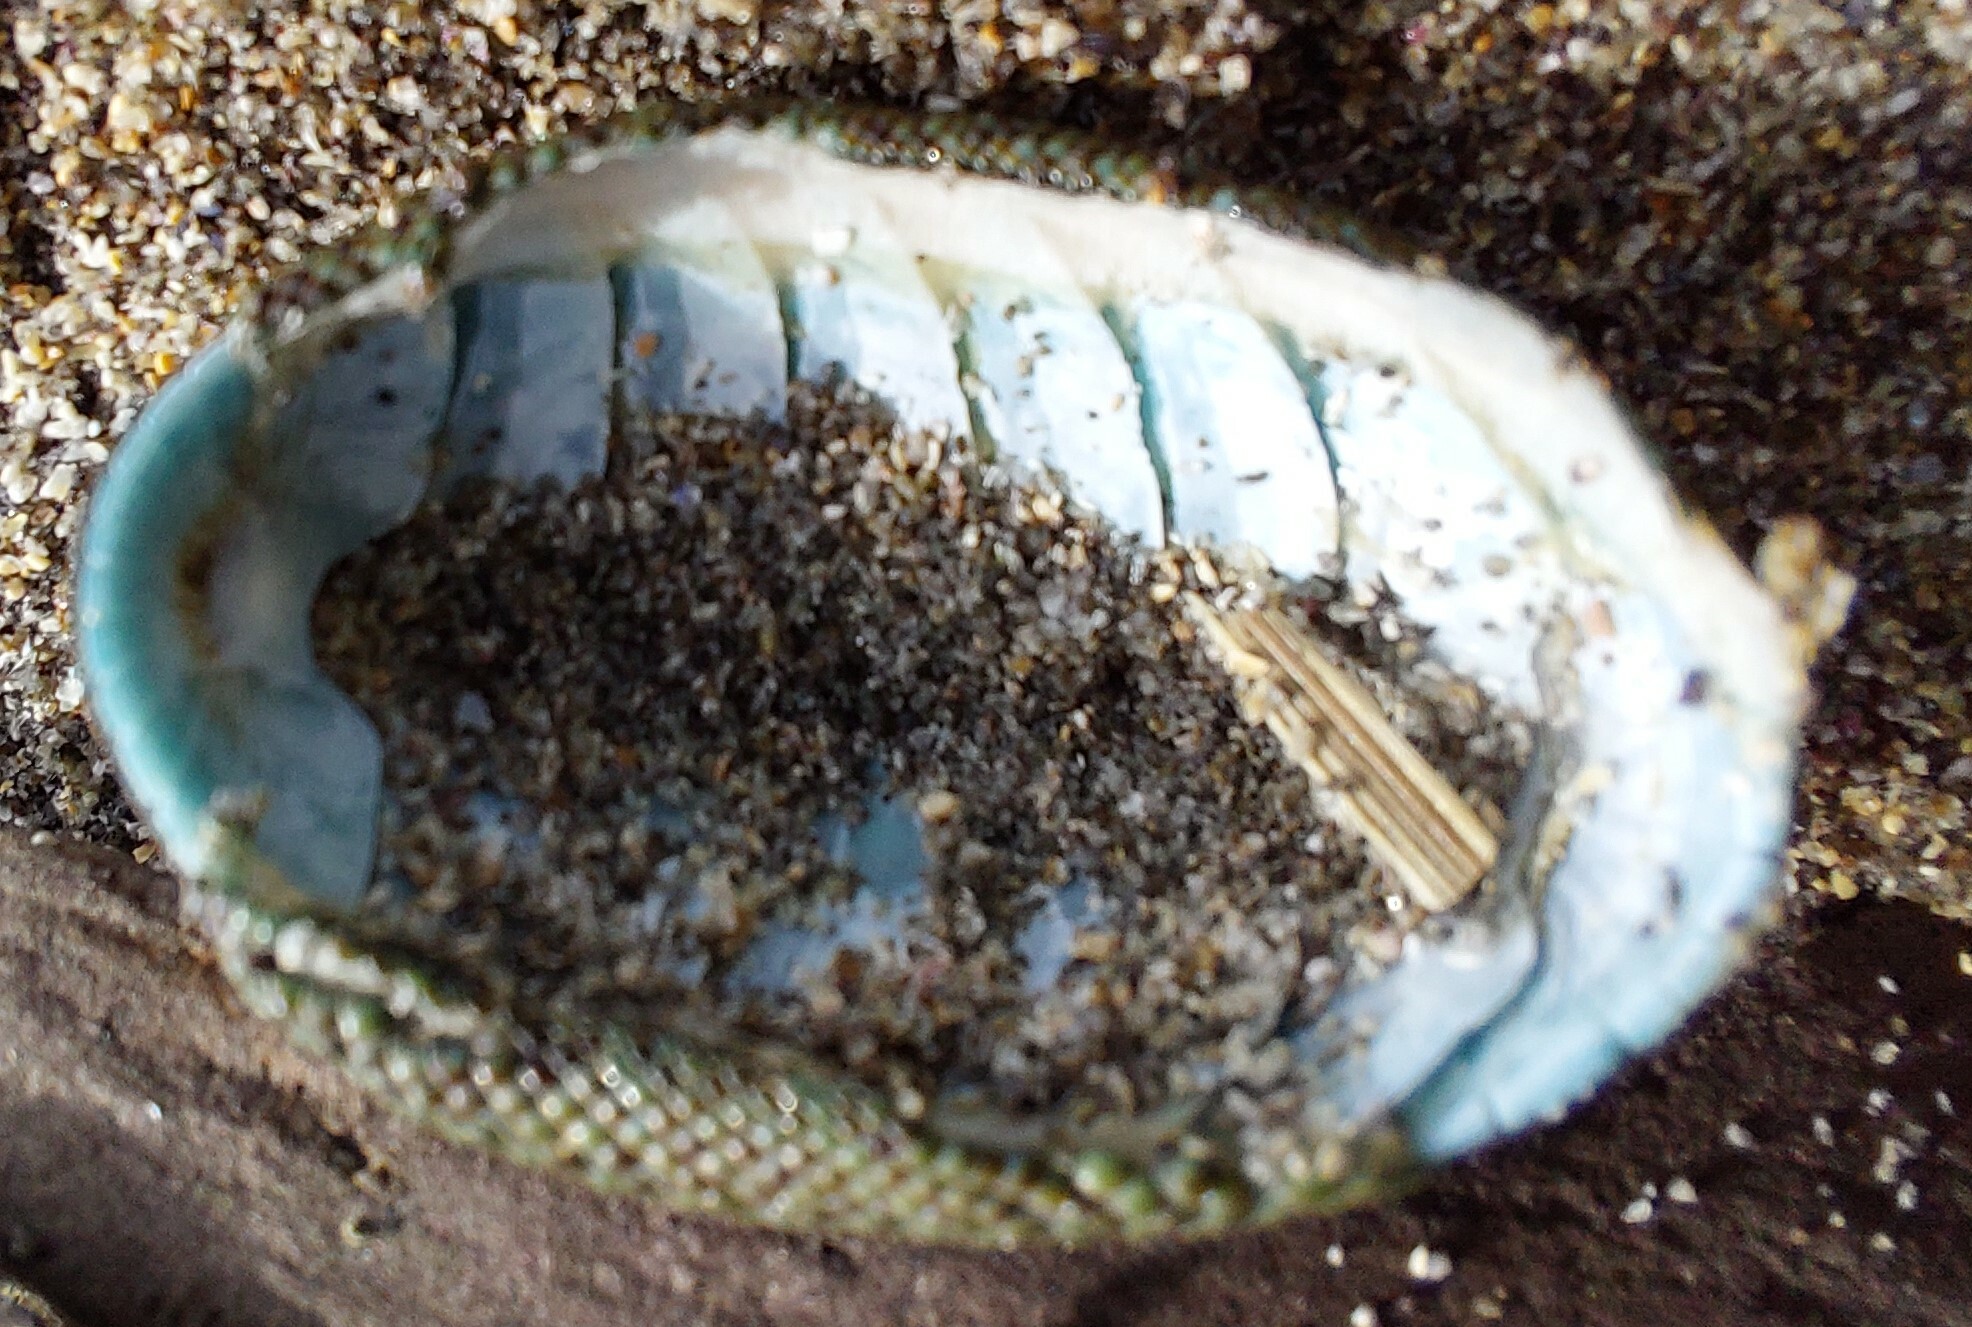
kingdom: Animalia
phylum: Mollusca
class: Polyplacophora
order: Chitonida
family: Chitonidae
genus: Chiton
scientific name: Chiton glaucus
